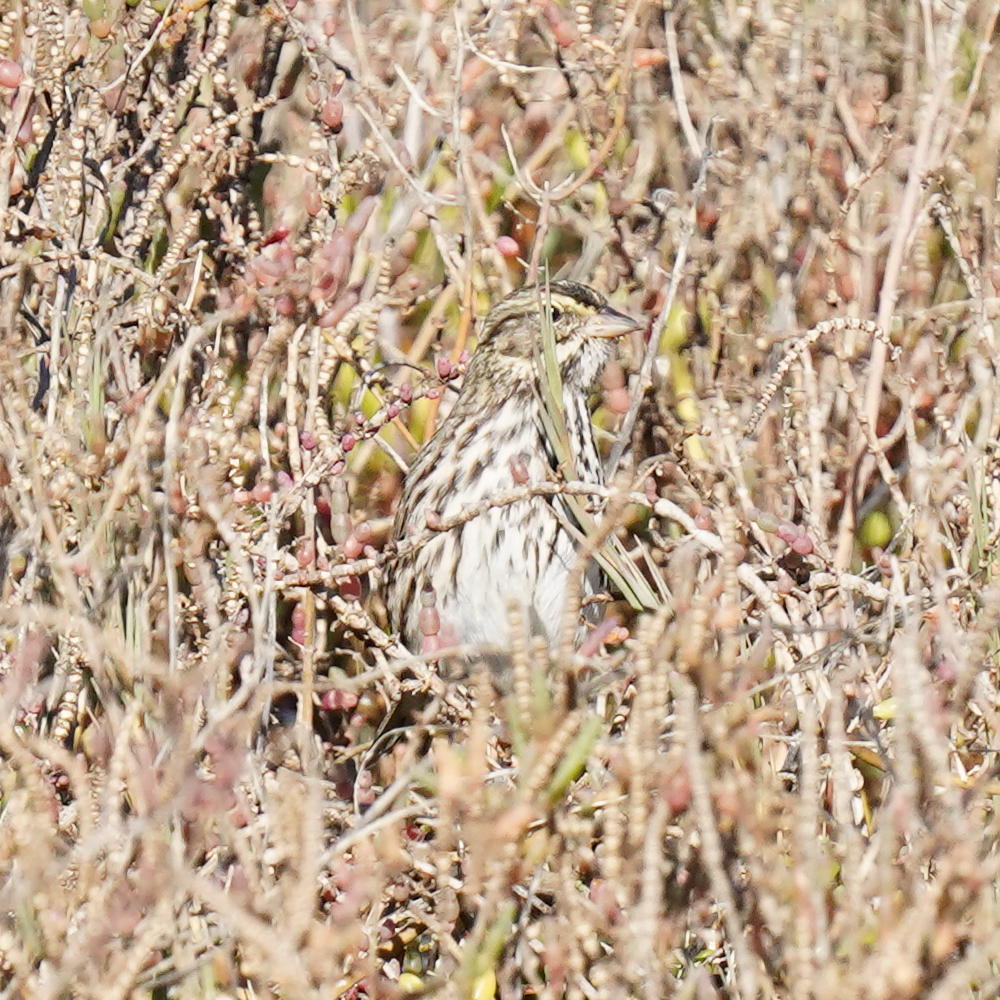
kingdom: Animalia
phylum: Chordata
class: Aves
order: Passeriformes
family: Passerellidae
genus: Passerculus
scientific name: Passerculus sandwichensis
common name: Savannah sparrow
